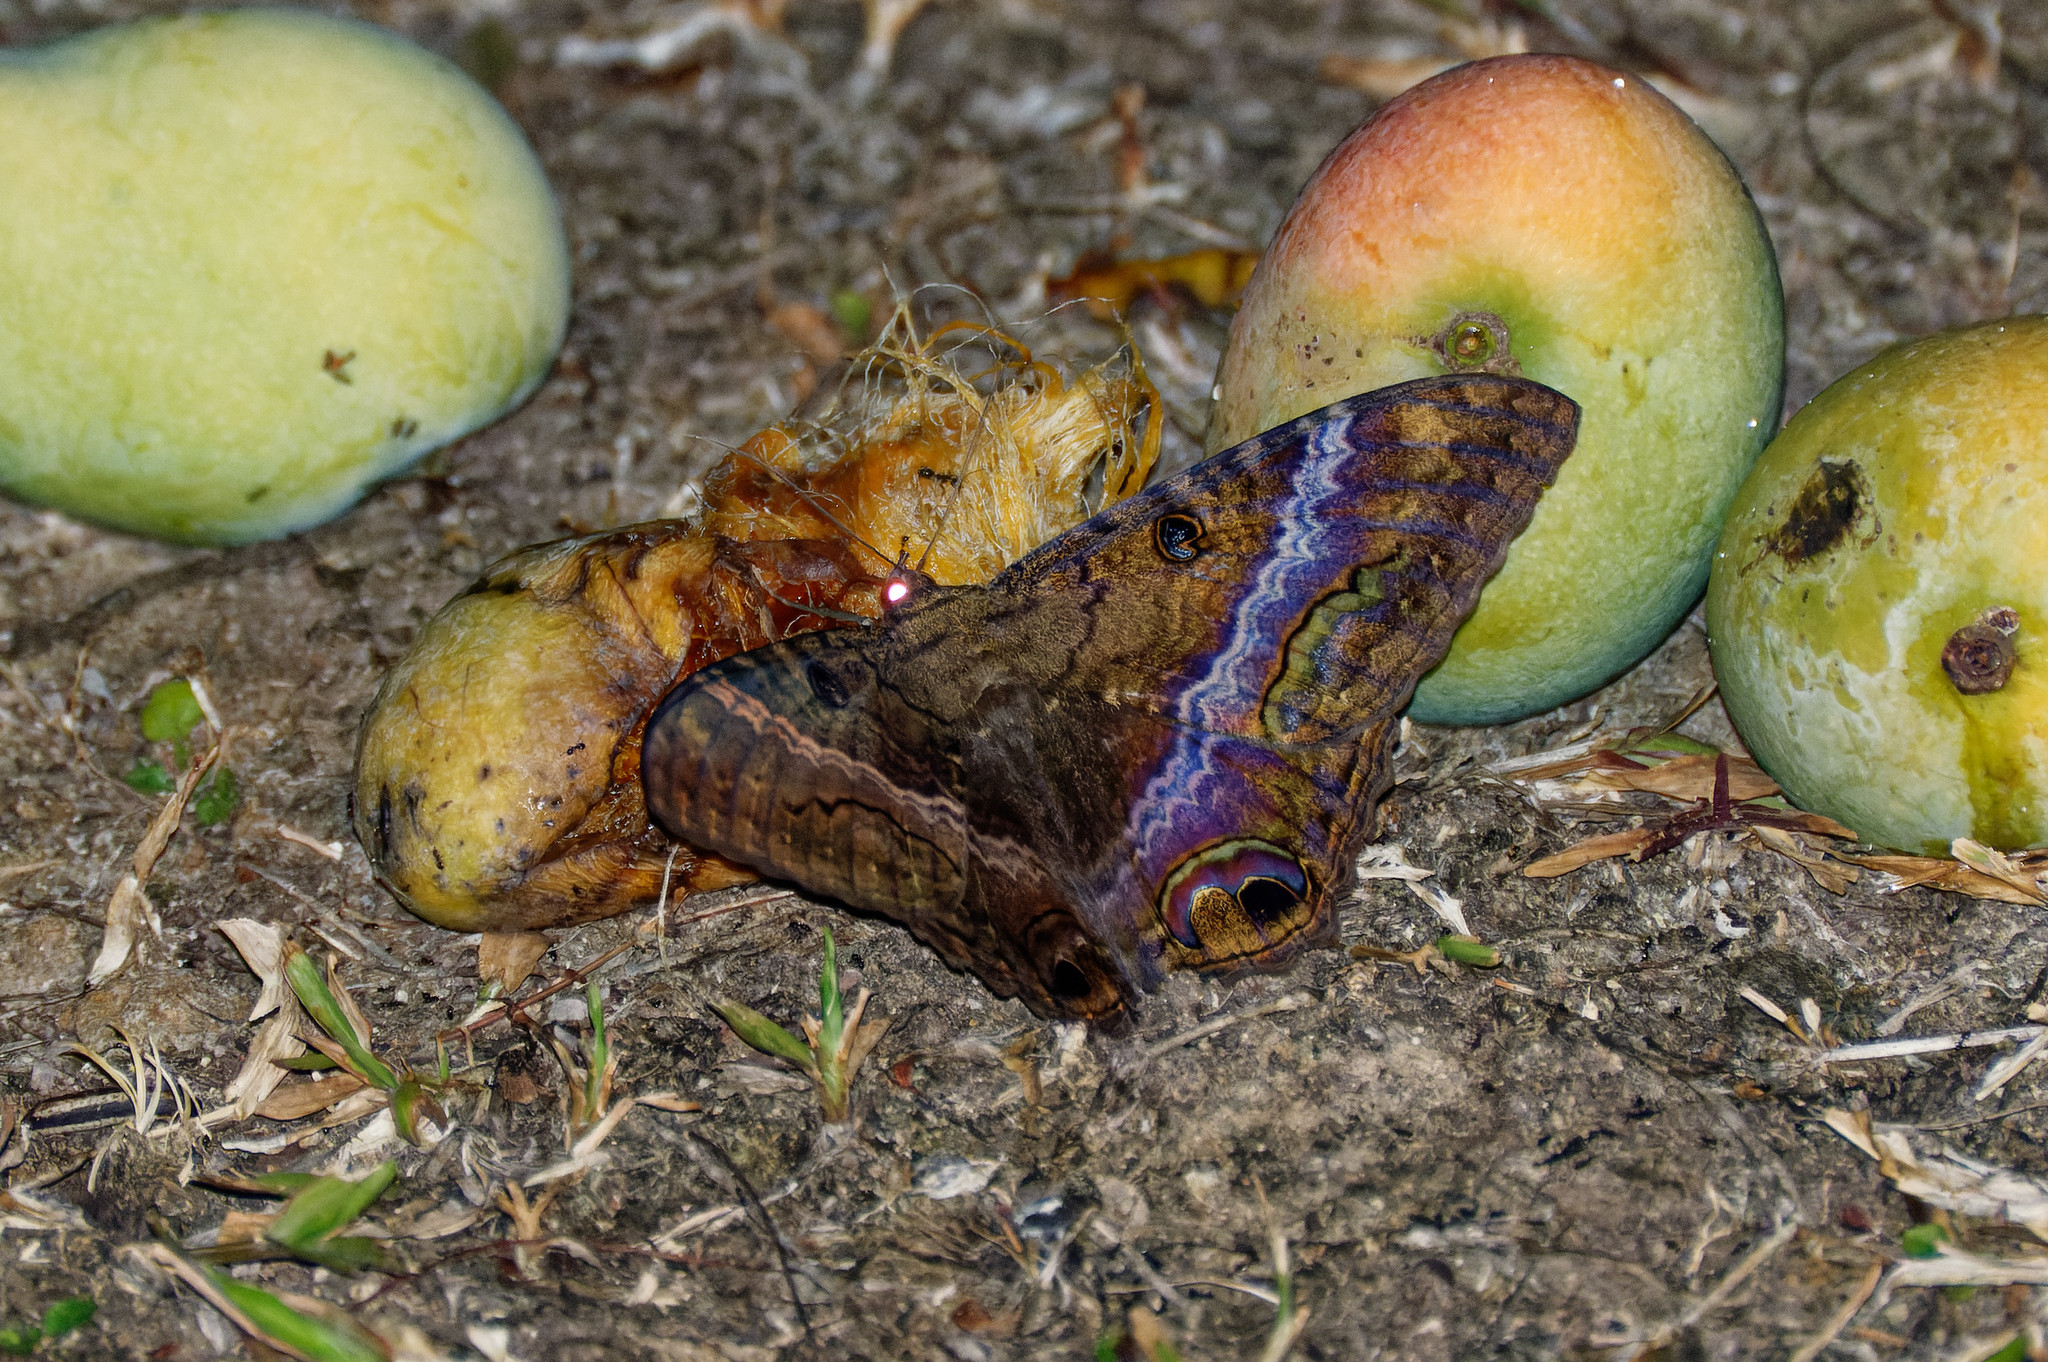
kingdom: Animalia
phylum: Arthropoda
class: Insecta
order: Lepidoptera
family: Erebidae
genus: Ascalapha
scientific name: Ascalapha odorata
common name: Black witch
